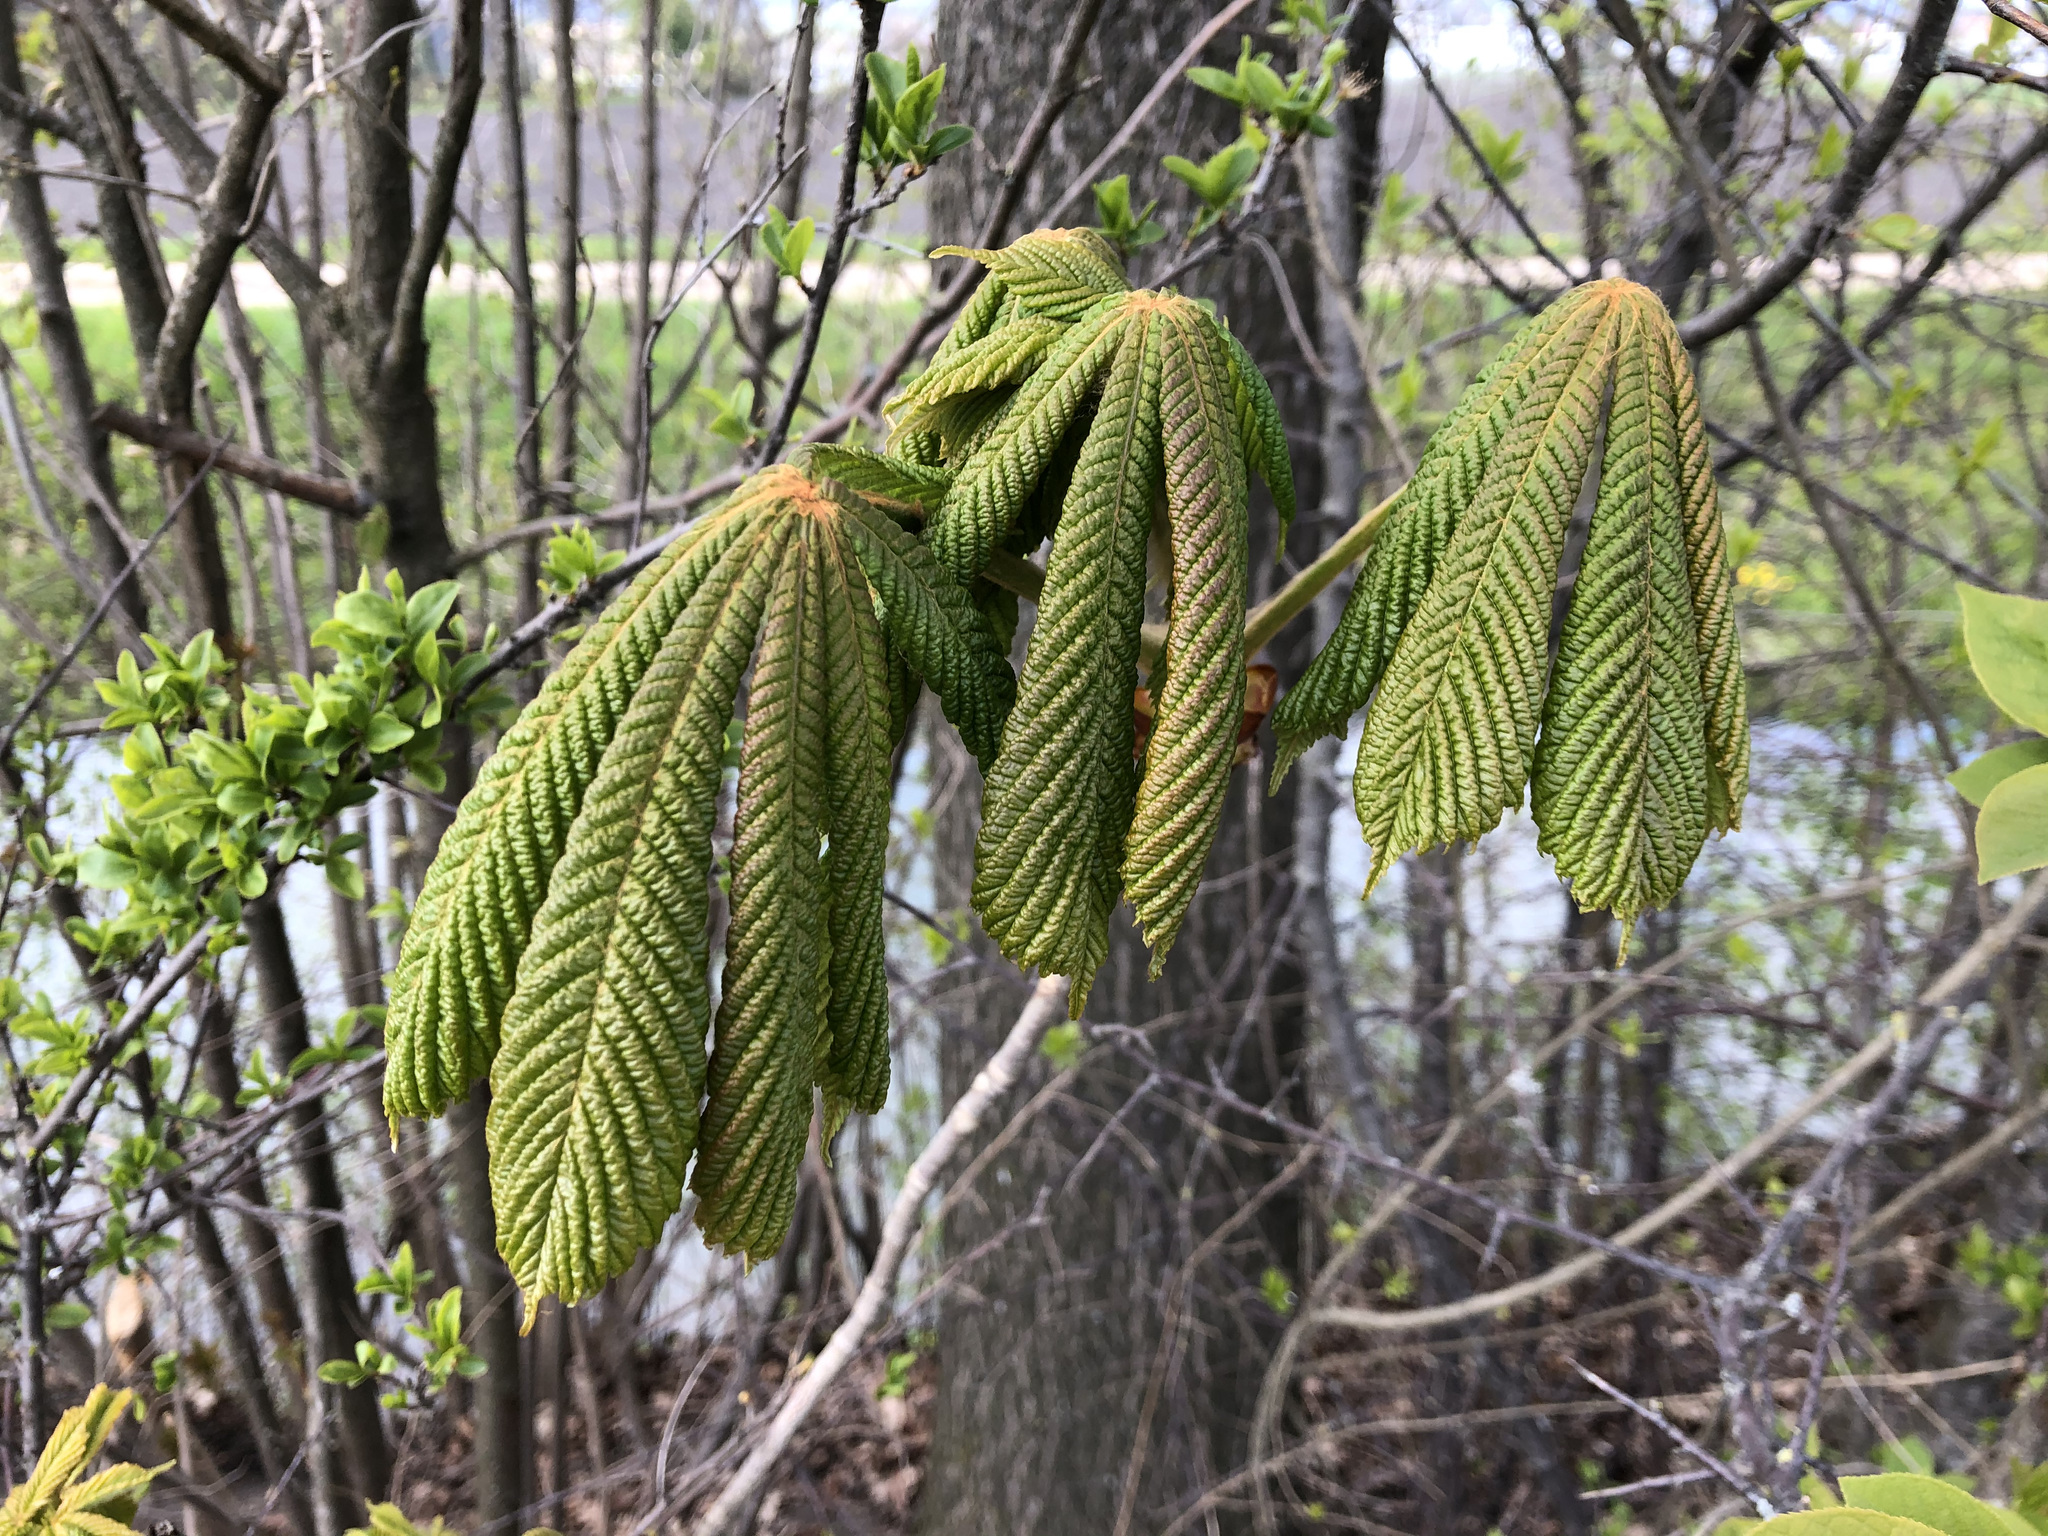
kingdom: Plantae
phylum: Tracheophyta
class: Magnoliopsida
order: Sapindales
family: Sapindaceae
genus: Aesculus
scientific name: Aesculus hippocastanum
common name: Horse-chestnut
